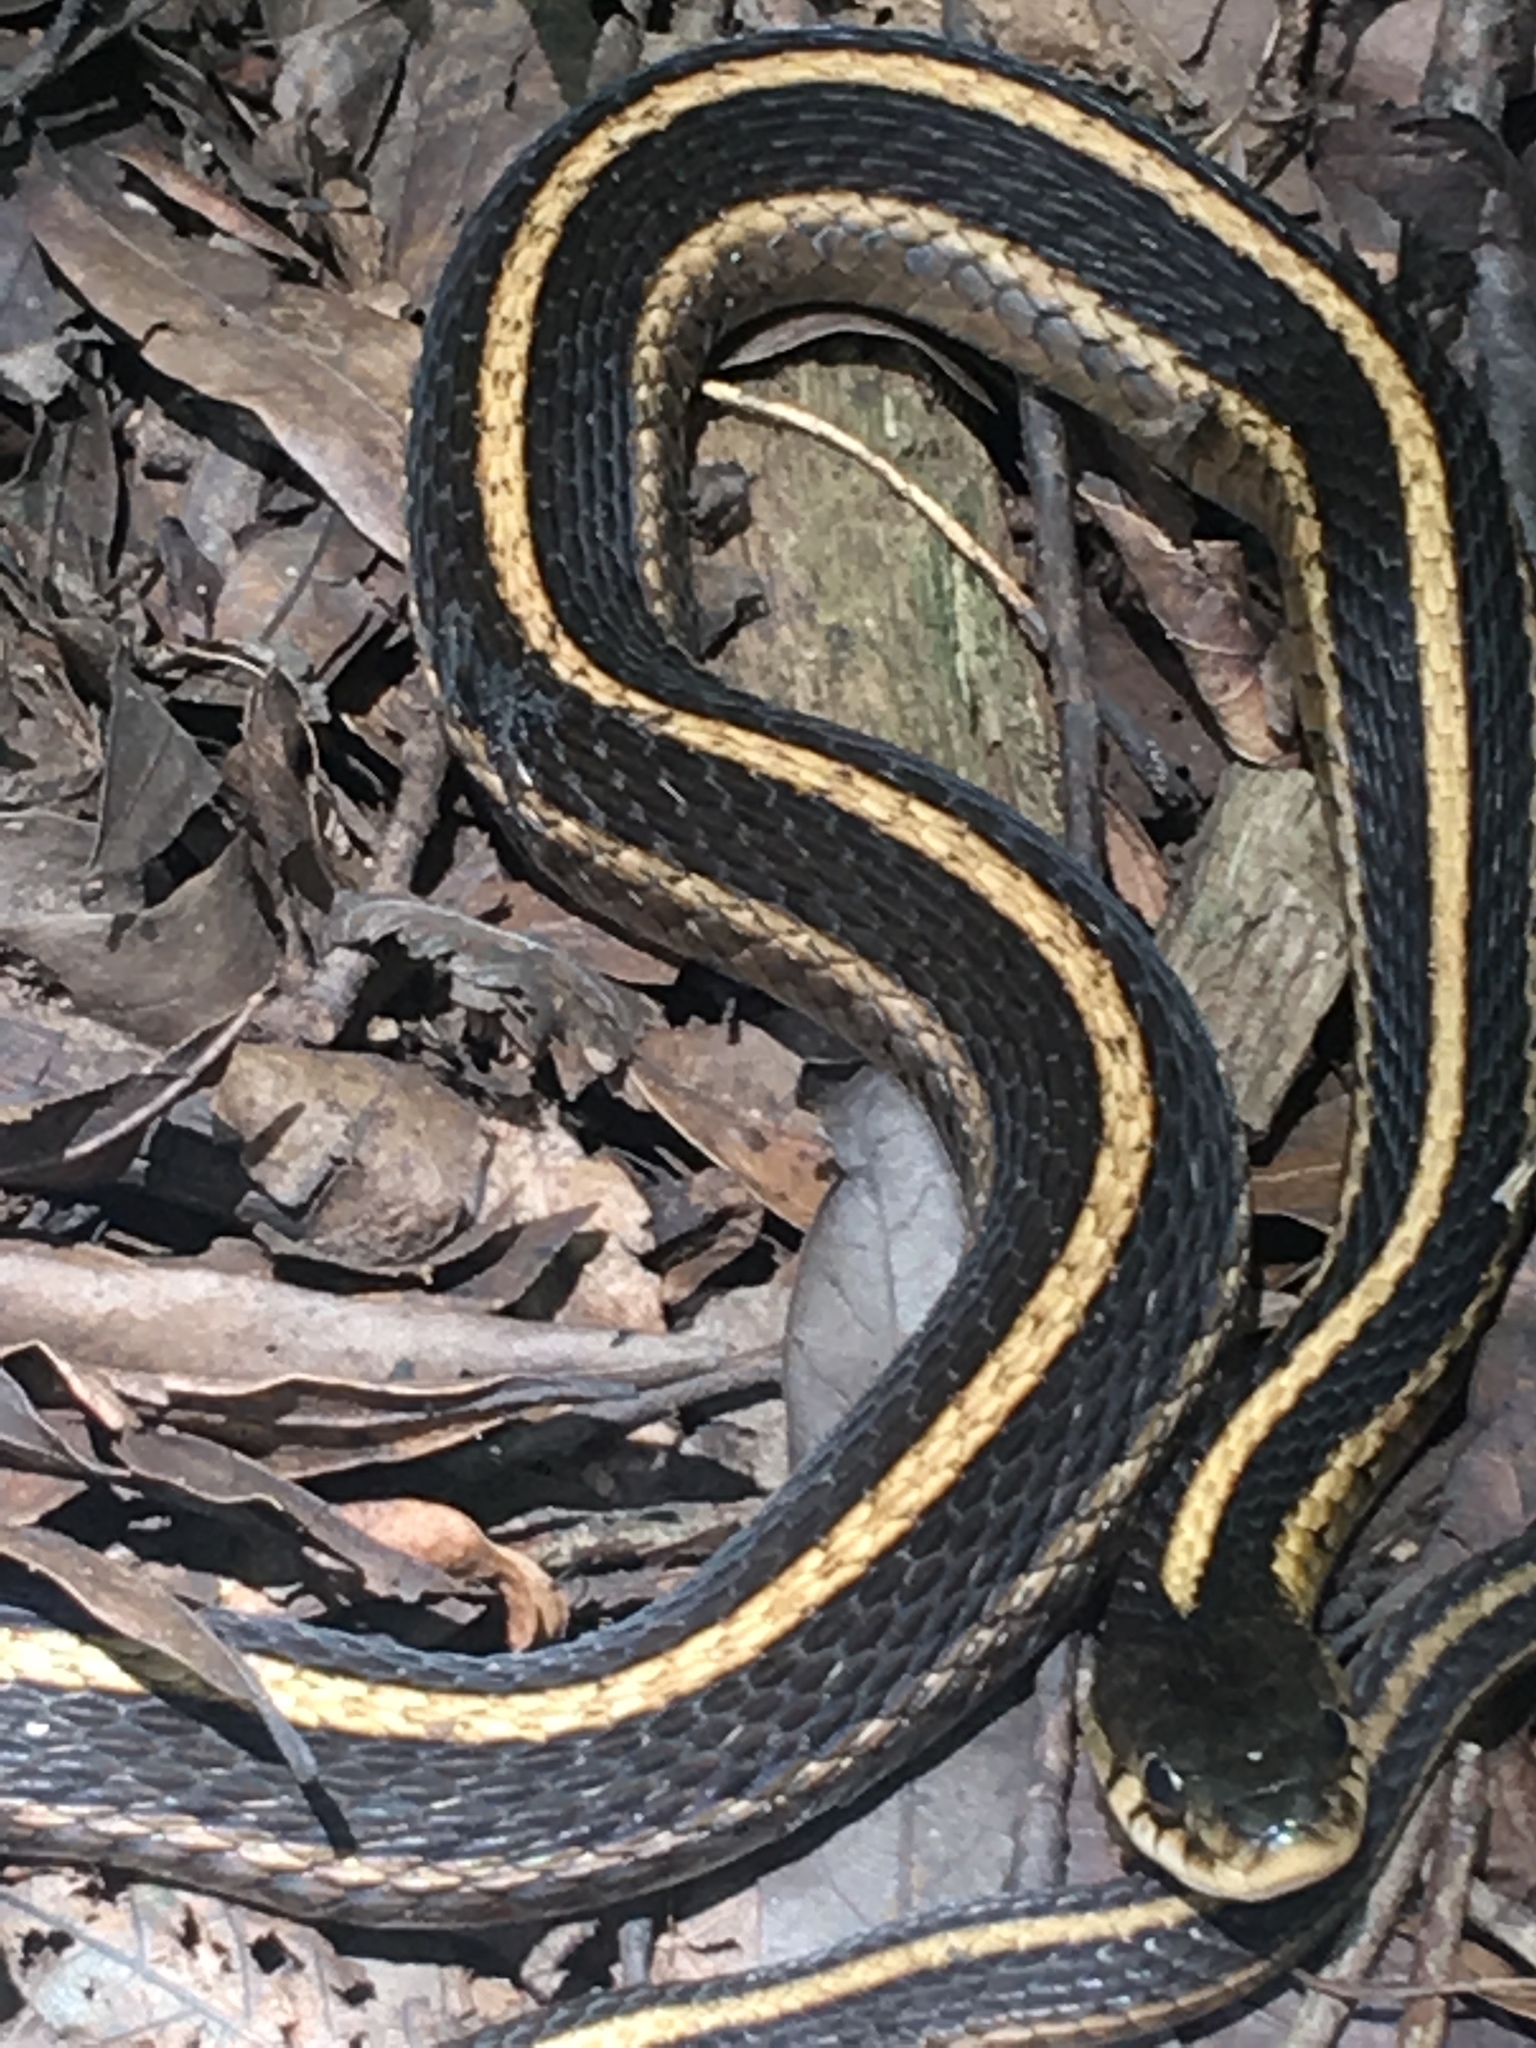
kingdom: Animalia
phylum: Chordata
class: Squamata
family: Colubridae
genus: Thamnophis
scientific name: Thamnophis sirtalis
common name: Common garter snake
